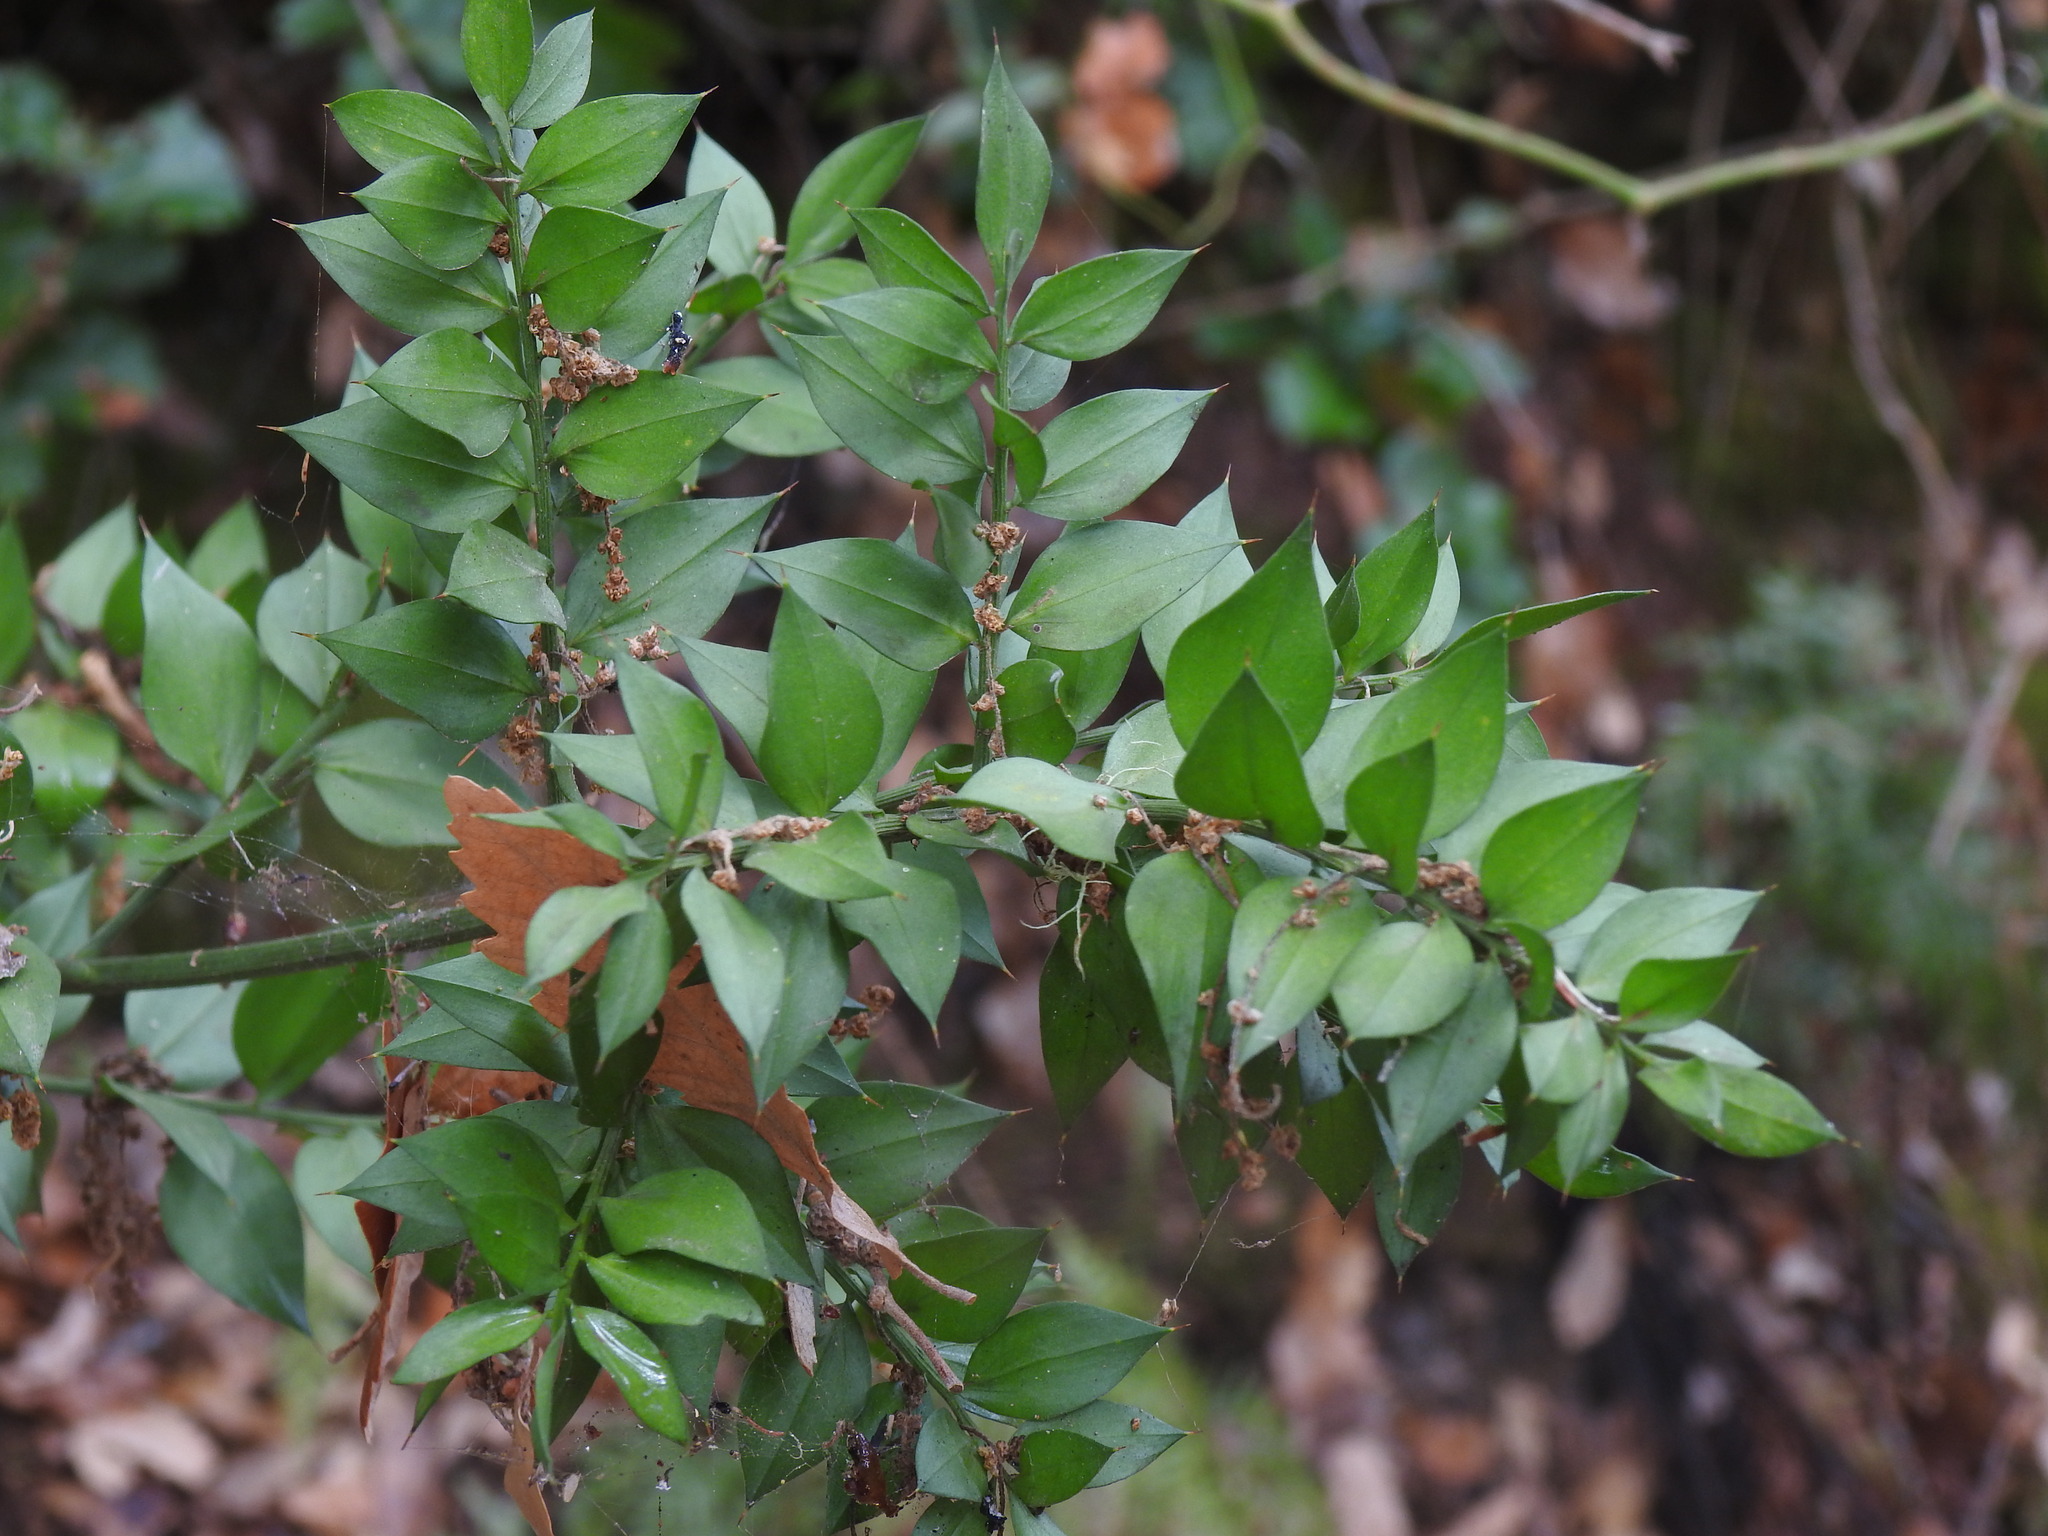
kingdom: Plantae
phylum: Tracheophyta
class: Liliopsida
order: Asparagales
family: Asparagaceae
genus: Ruscus
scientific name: Ruscus aculeatus
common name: Butcher's-broom
